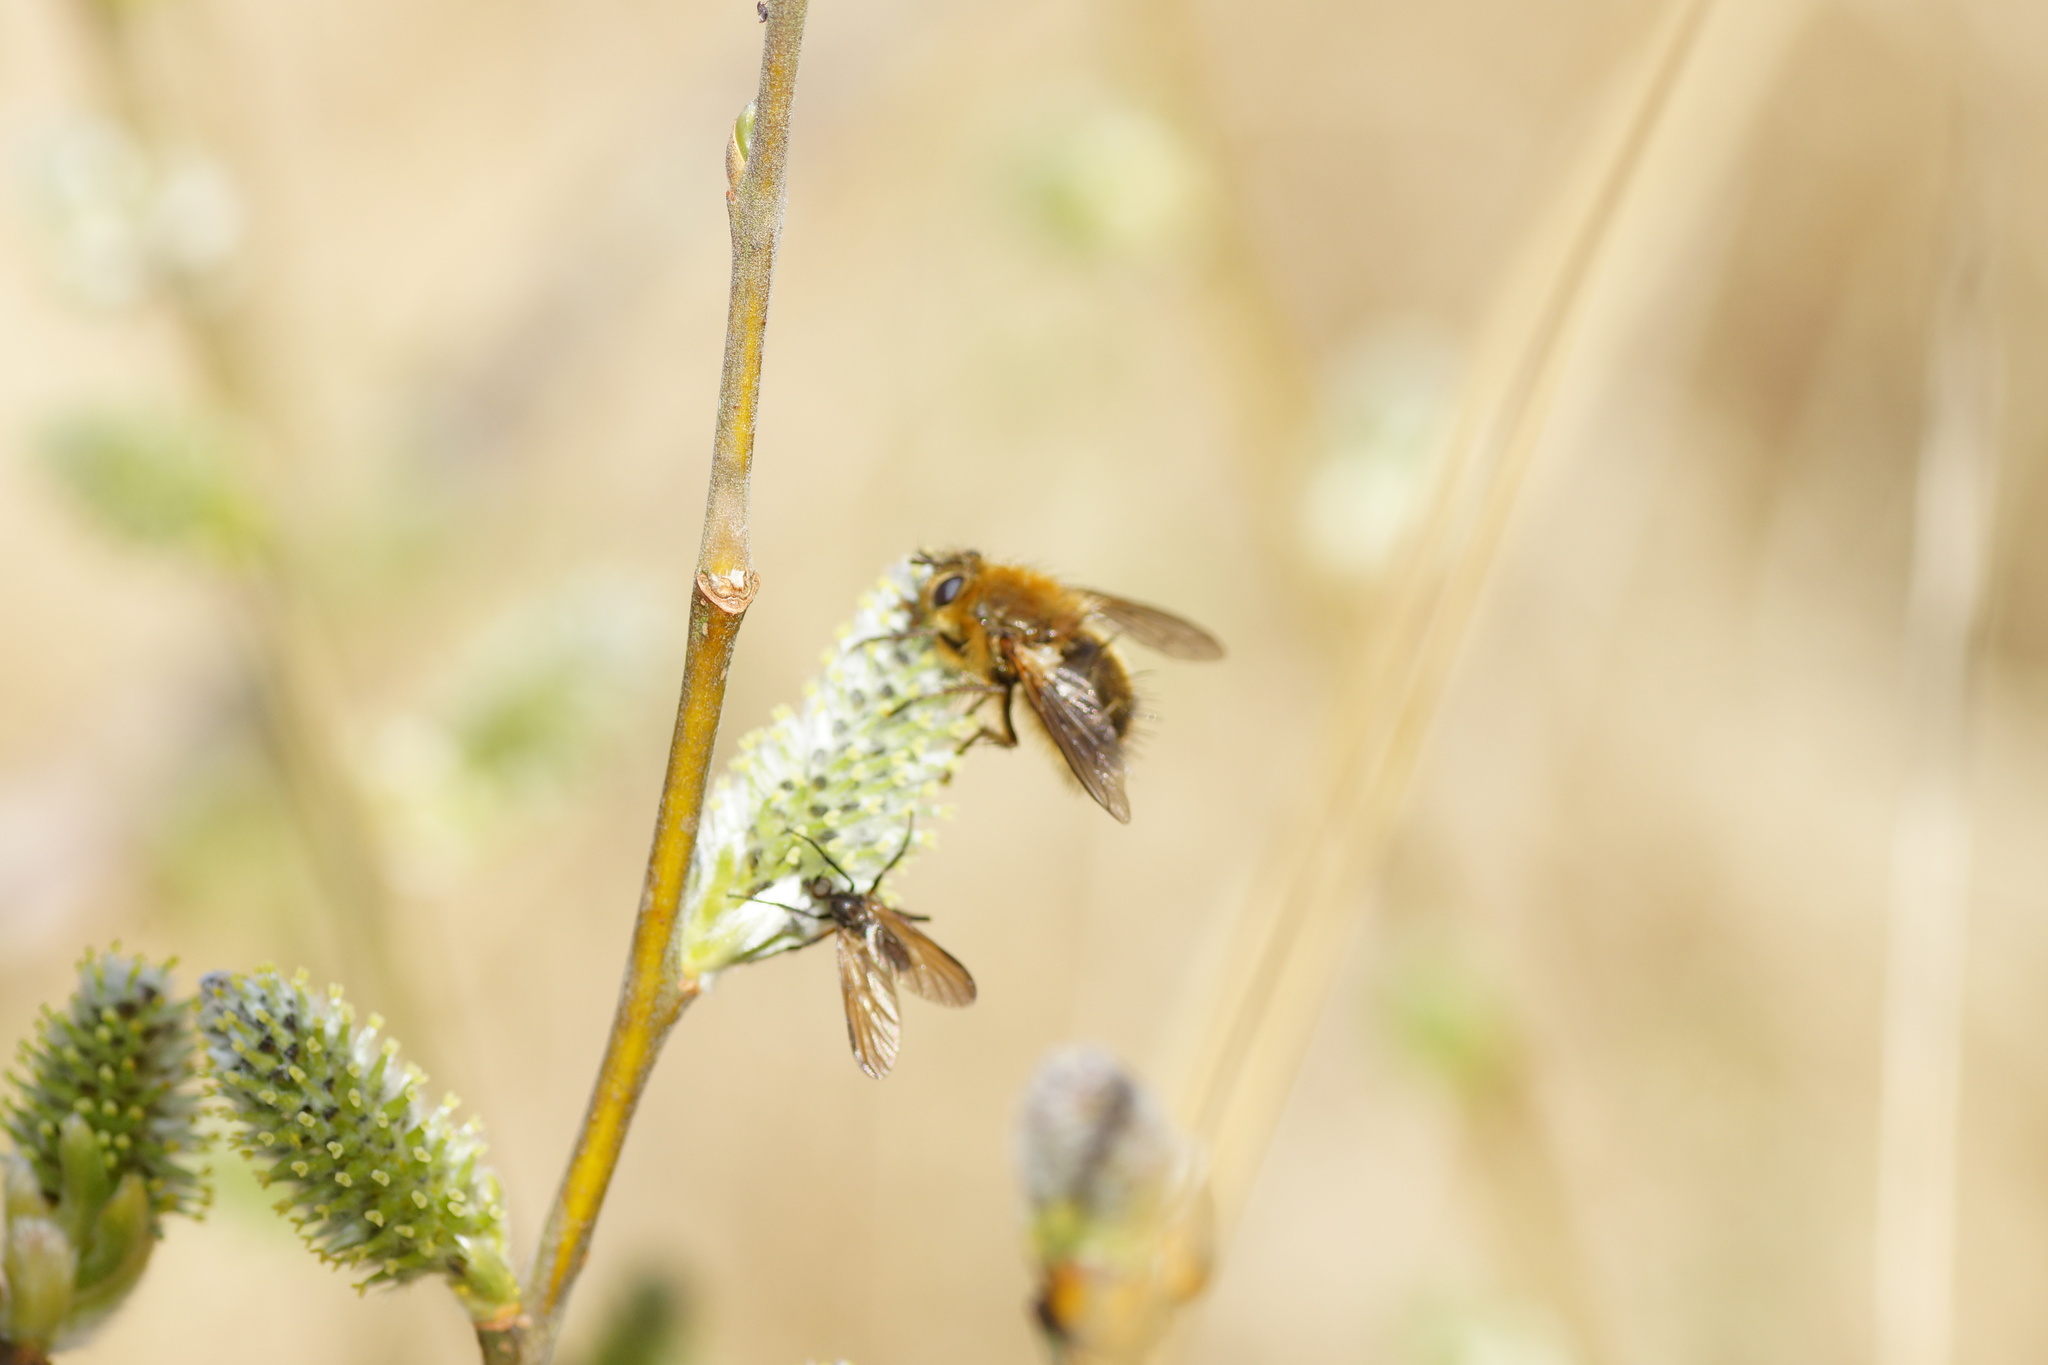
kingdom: Animalia
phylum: Arthropoda
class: Insecta
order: Diptera
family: Tachinidae
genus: Tachina
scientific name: Tachina ursina
